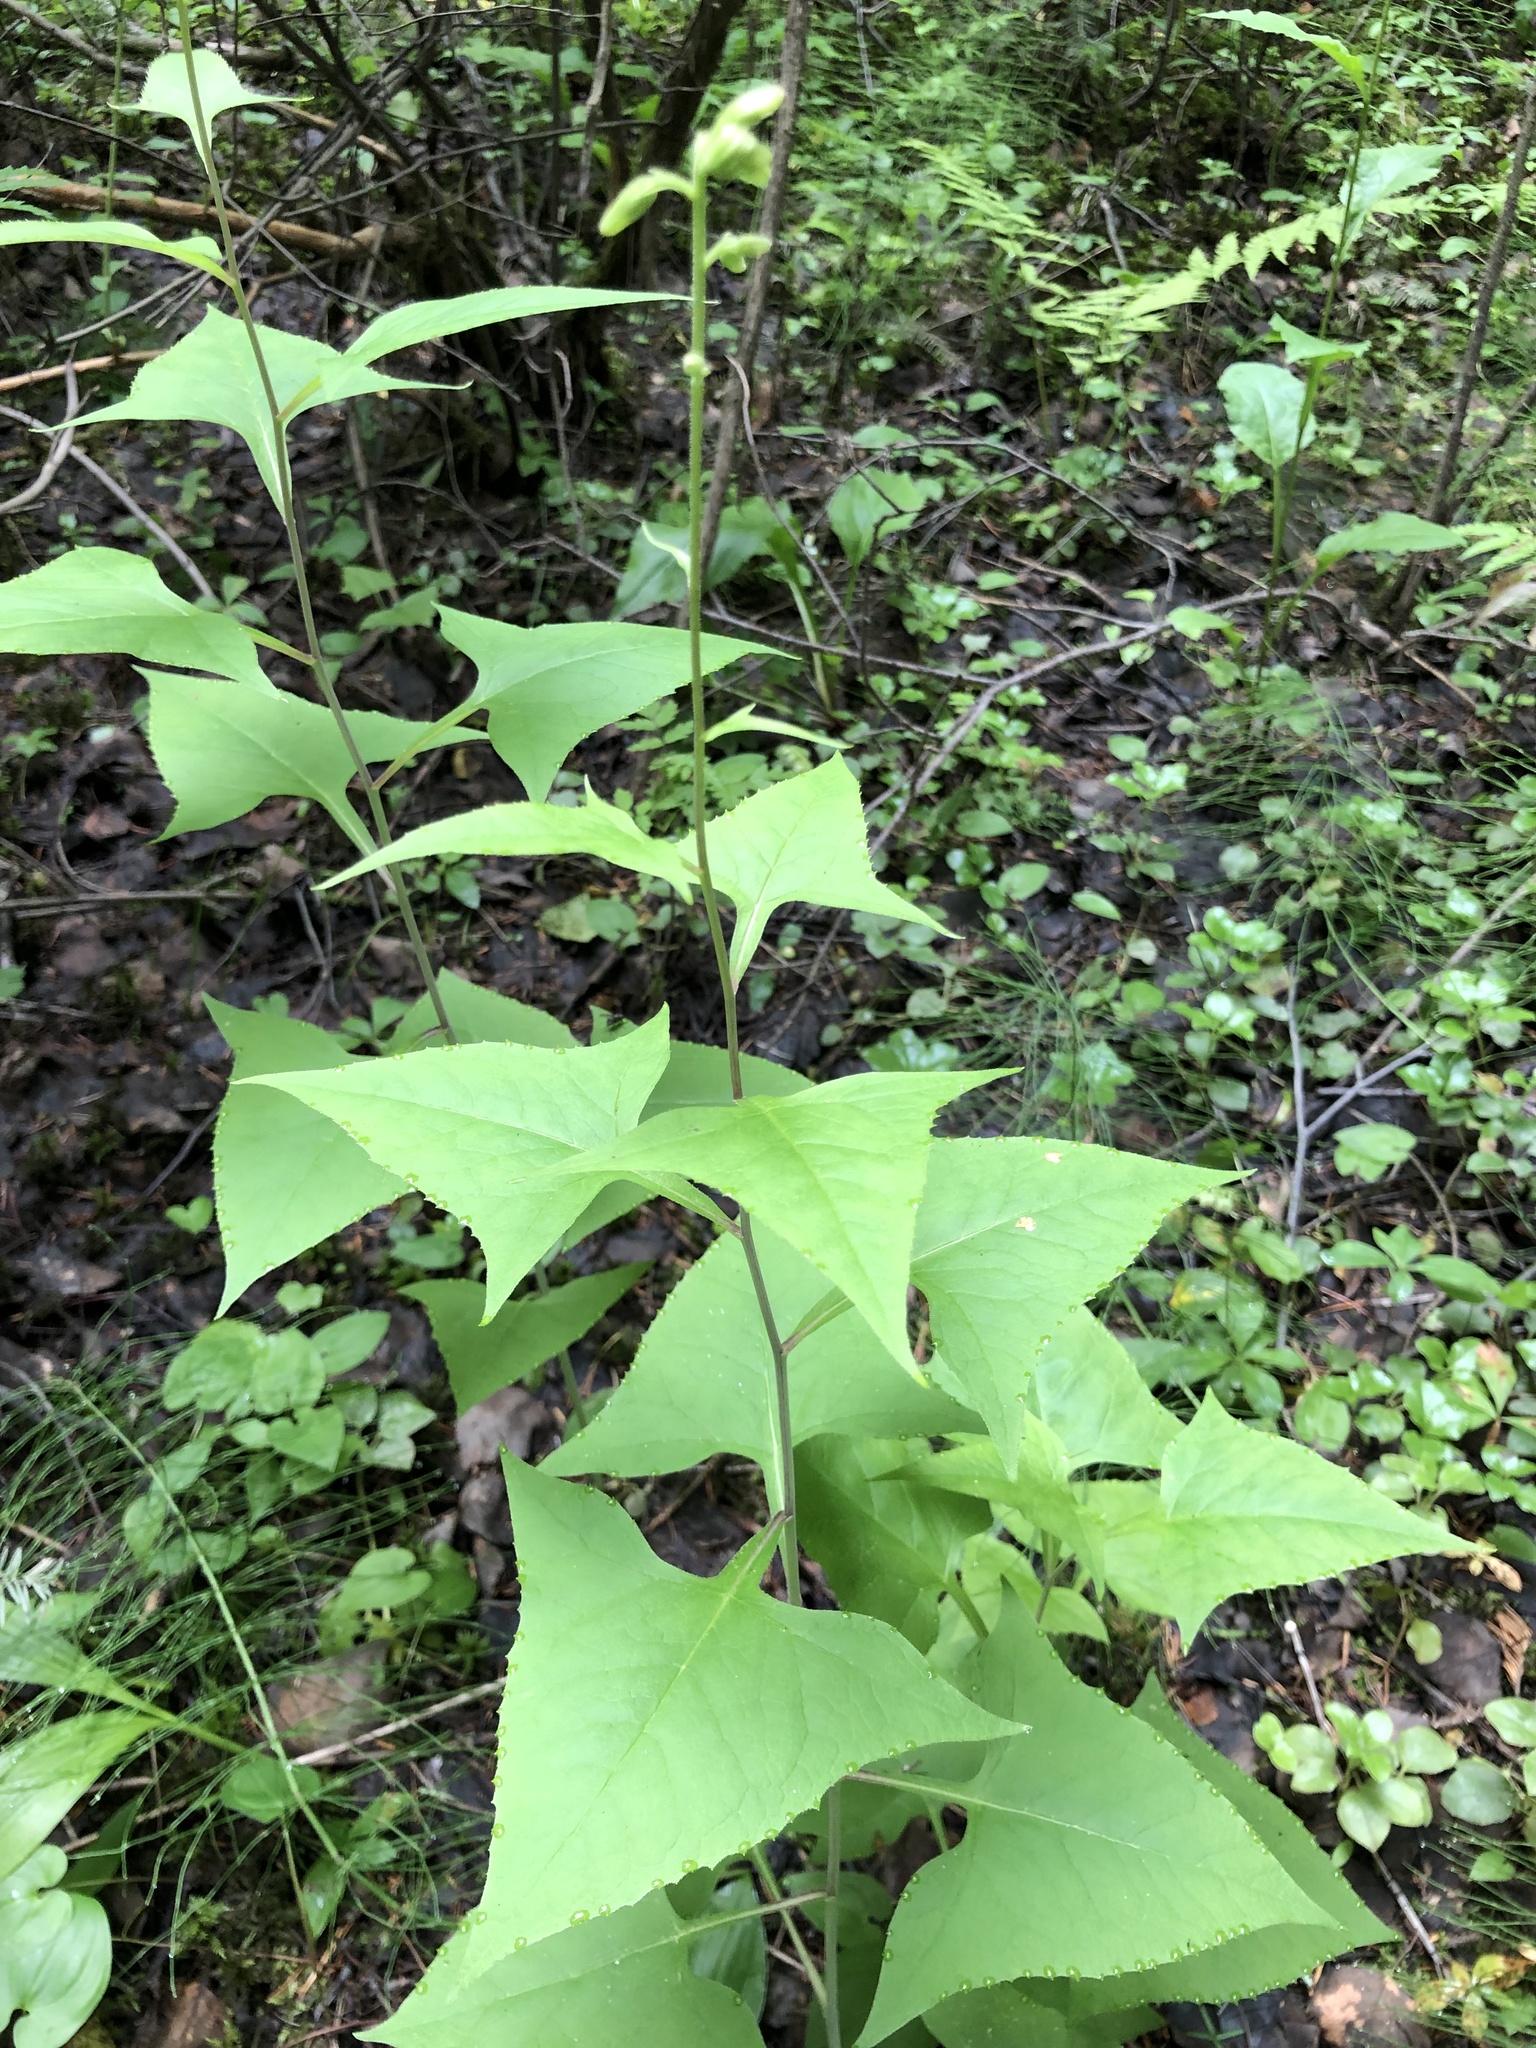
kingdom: Plantae
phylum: Tracheophyta
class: Magnoliopsida
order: Asterales
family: Asteraceae
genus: Parasenecio
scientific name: Parasenecio hastatus
